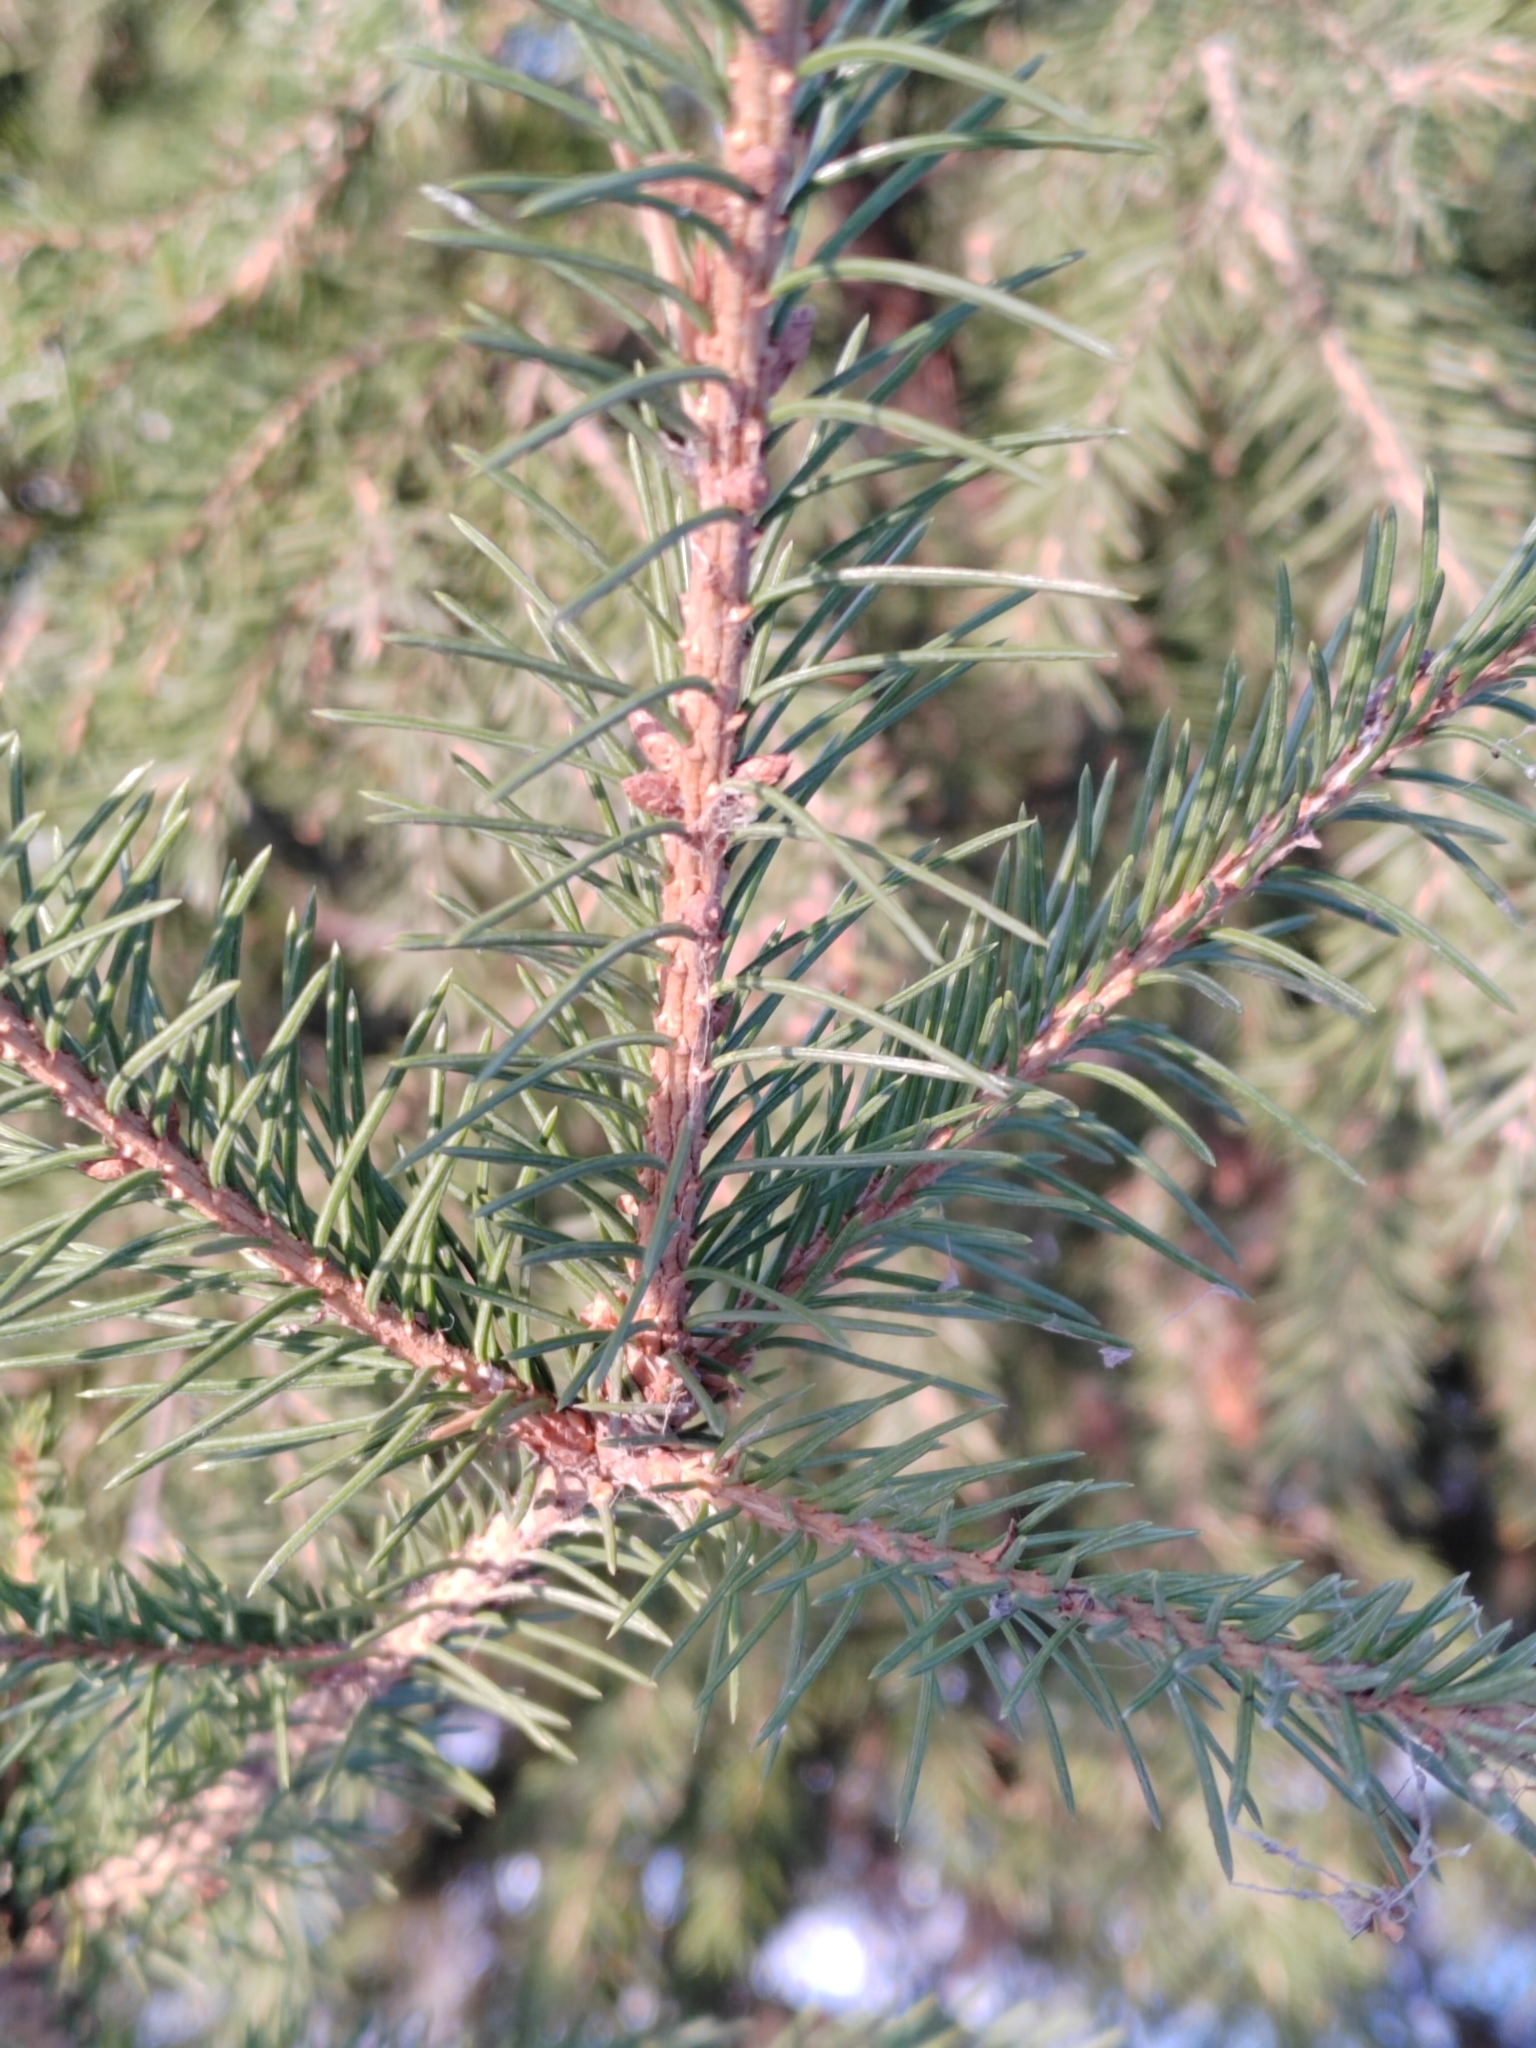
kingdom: Plantae
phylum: Tracheophyta
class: Pinopsida
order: Pinales
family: Pinaceae
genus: Picea
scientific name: Picea obovata
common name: Siberian spruce
